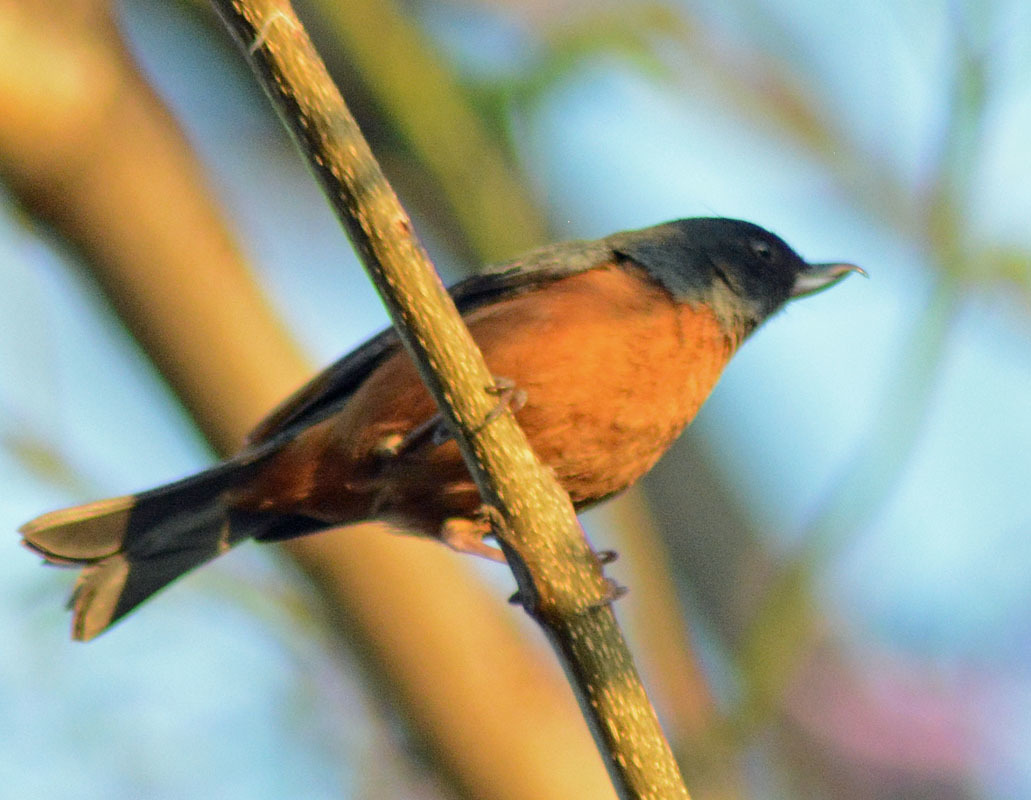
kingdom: Animalia
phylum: Chordata
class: Aves
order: Passeriformes
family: Thraupidae
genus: Diglossa
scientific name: Diglossa baritula
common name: Cinnamon-bellied flowerpiercer
